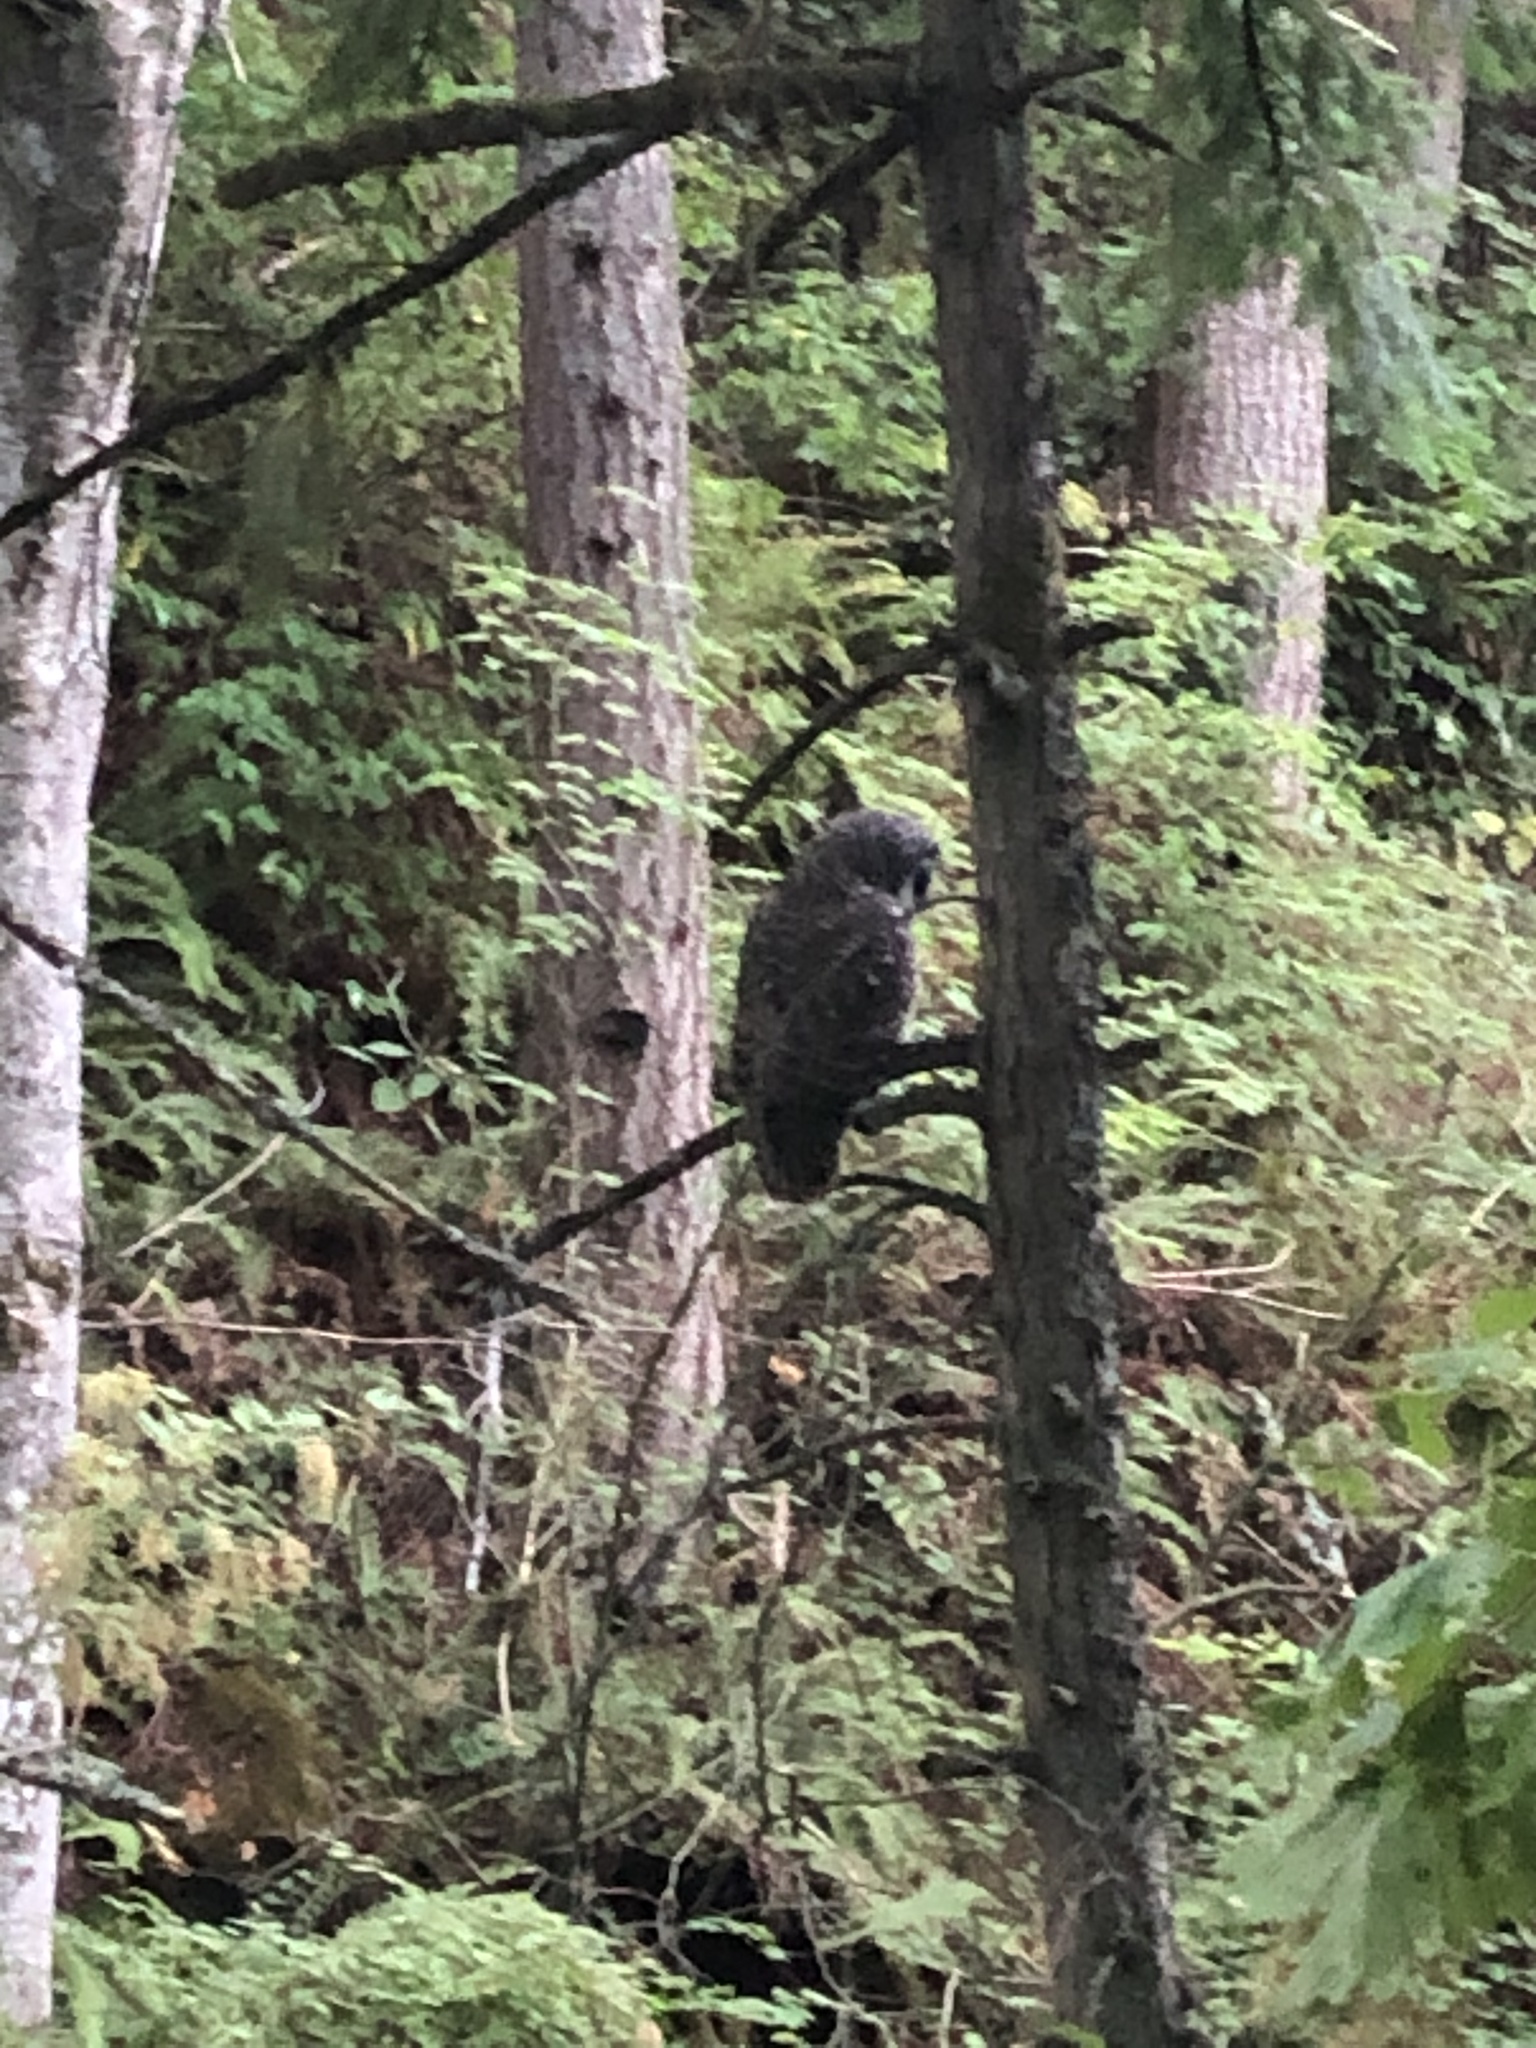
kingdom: Animalia
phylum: Chordata
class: Aves
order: Strigiformes
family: Strigidae
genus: Strix
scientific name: Strix varia
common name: Barred owl
